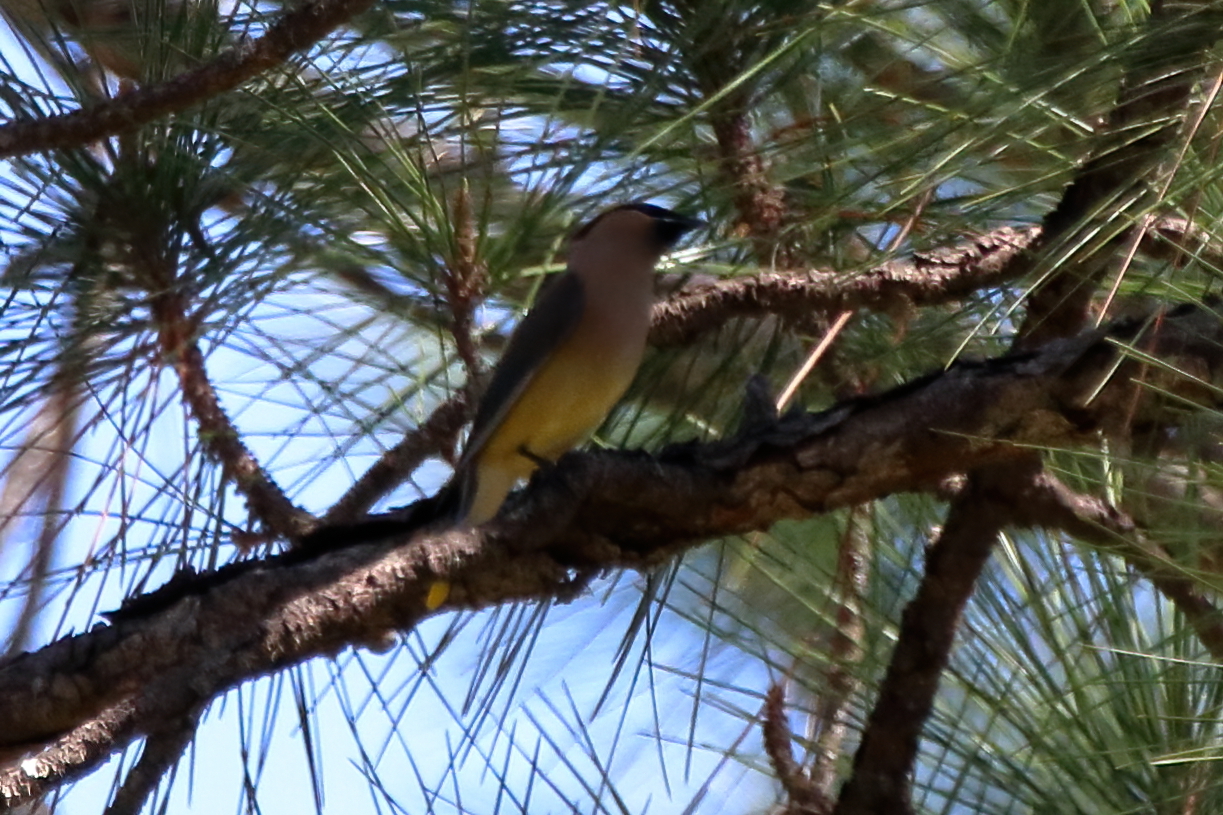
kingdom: Animalia
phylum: Chordata
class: Aves
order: Passeriformes
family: Bombycillidae
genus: Bombycilla
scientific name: Bombycilla cedrorum
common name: Cedar waxwing
